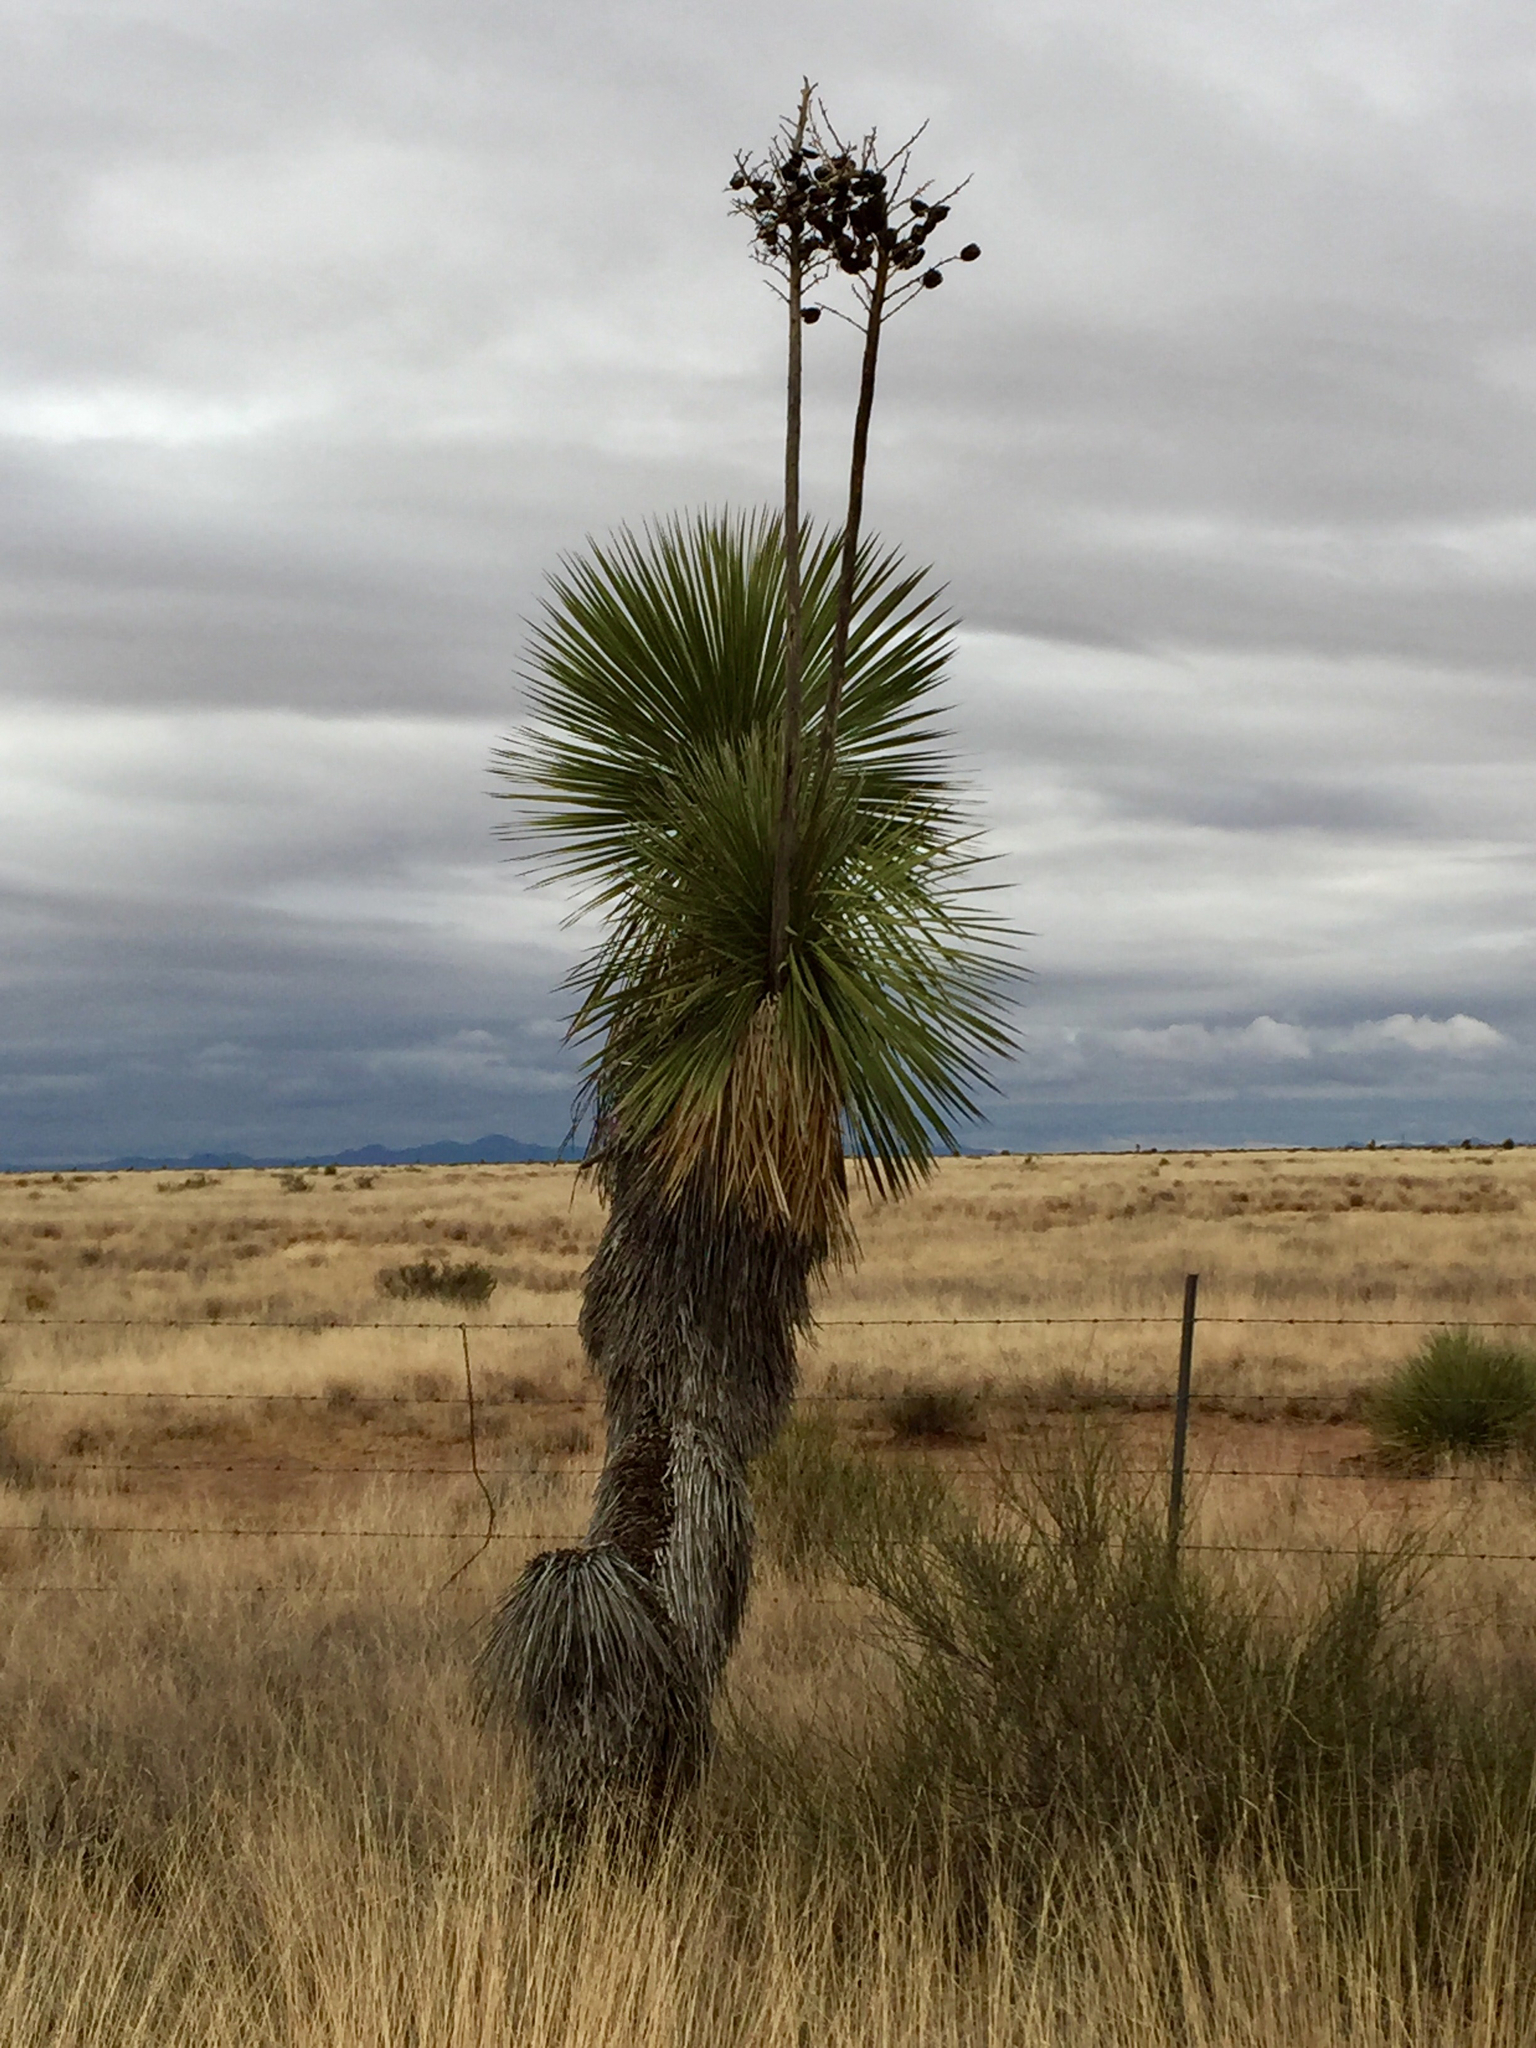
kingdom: Plantae
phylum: Tracheophyta
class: Liliopsida
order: Asparagales
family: Asparagaceae
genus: Yucca
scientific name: Yucca elata
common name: Palmella
